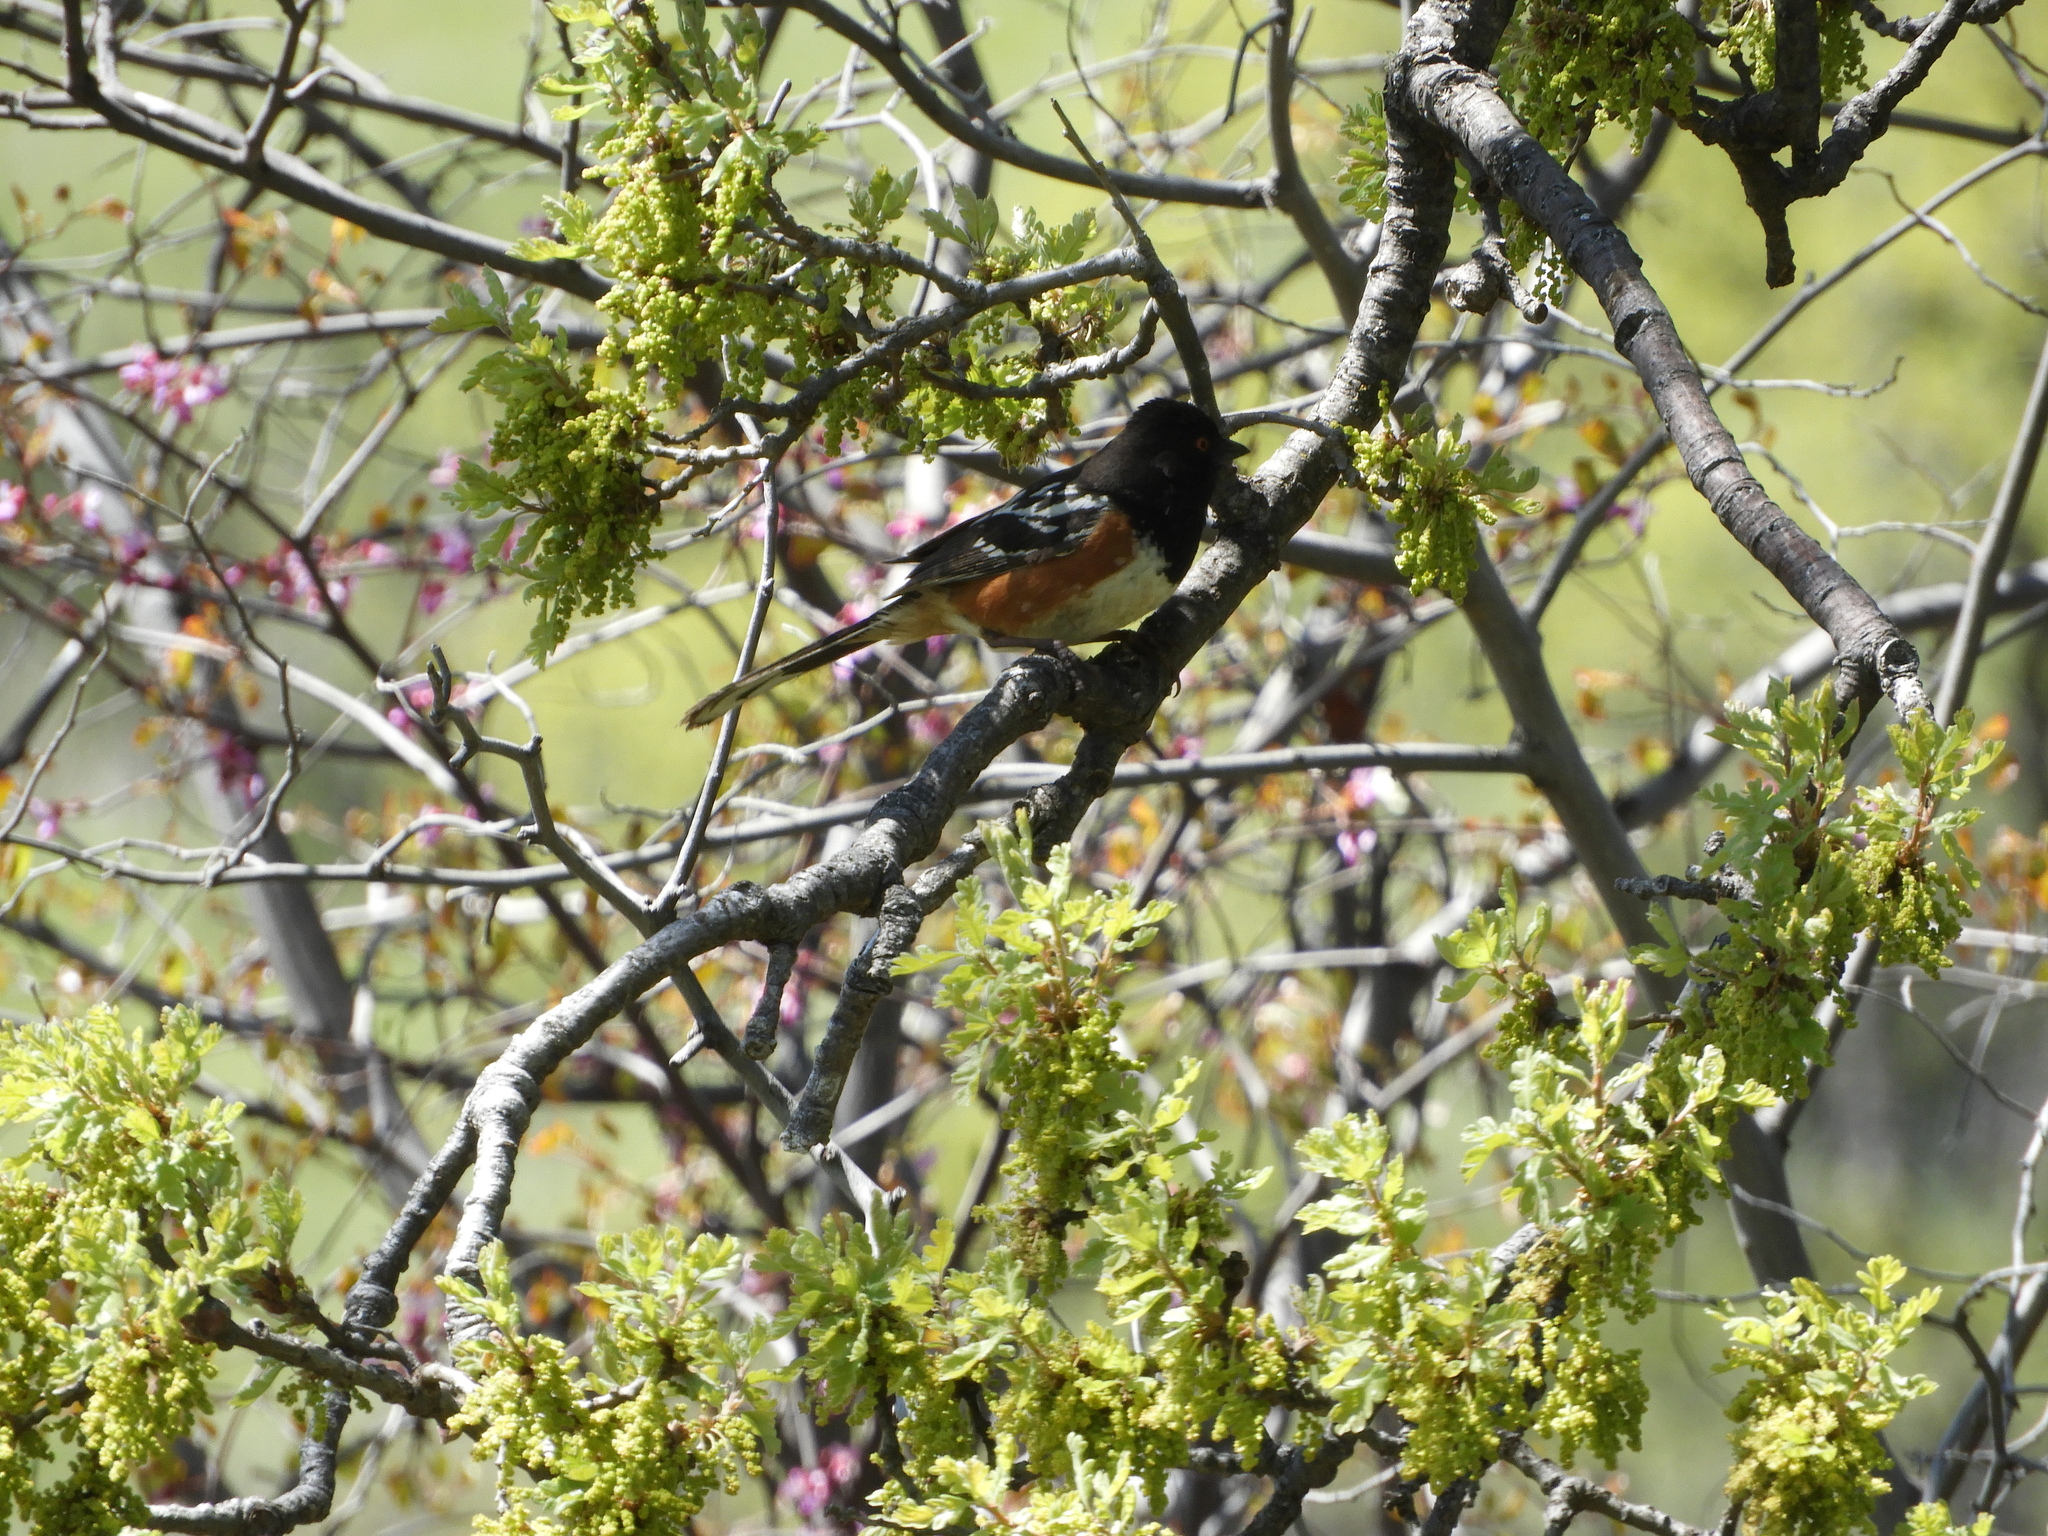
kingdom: Animalia
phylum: Chordata
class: Aves
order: Passeriformes
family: Passerellidae
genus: Pipilo
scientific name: Pipilo maculatus
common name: Spotted towhee
